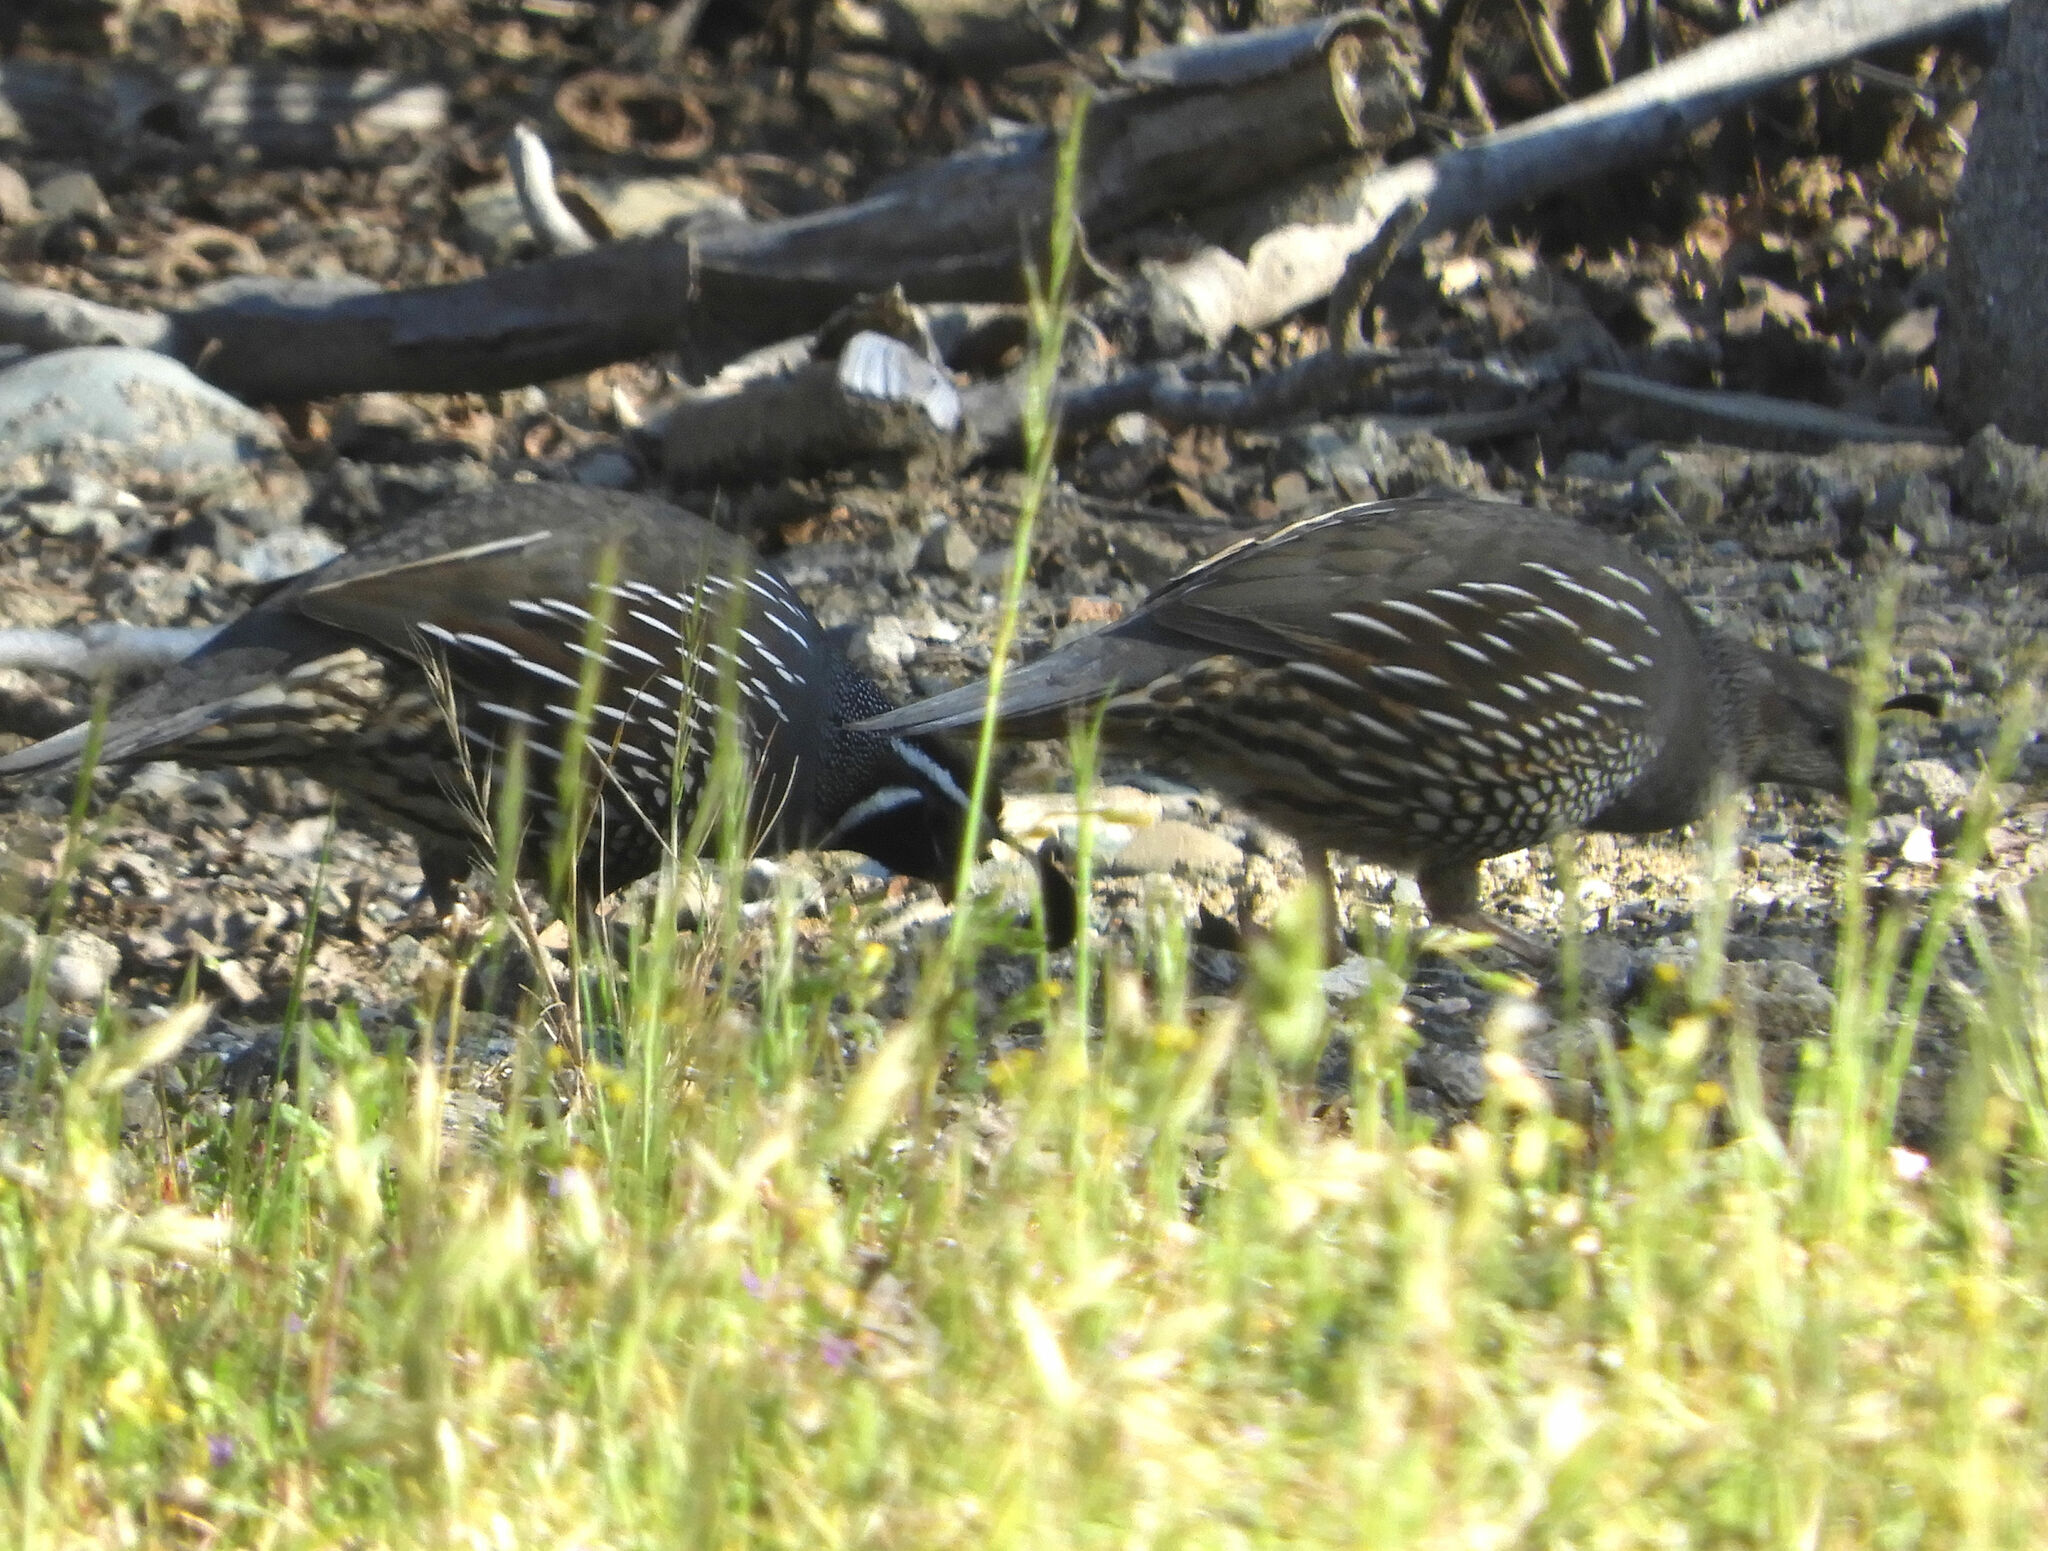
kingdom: Animalia
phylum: Chordata
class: Aves
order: Galliformes
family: Odontophoridae
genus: Callipepla
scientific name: Callipepla californica
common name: California quail
